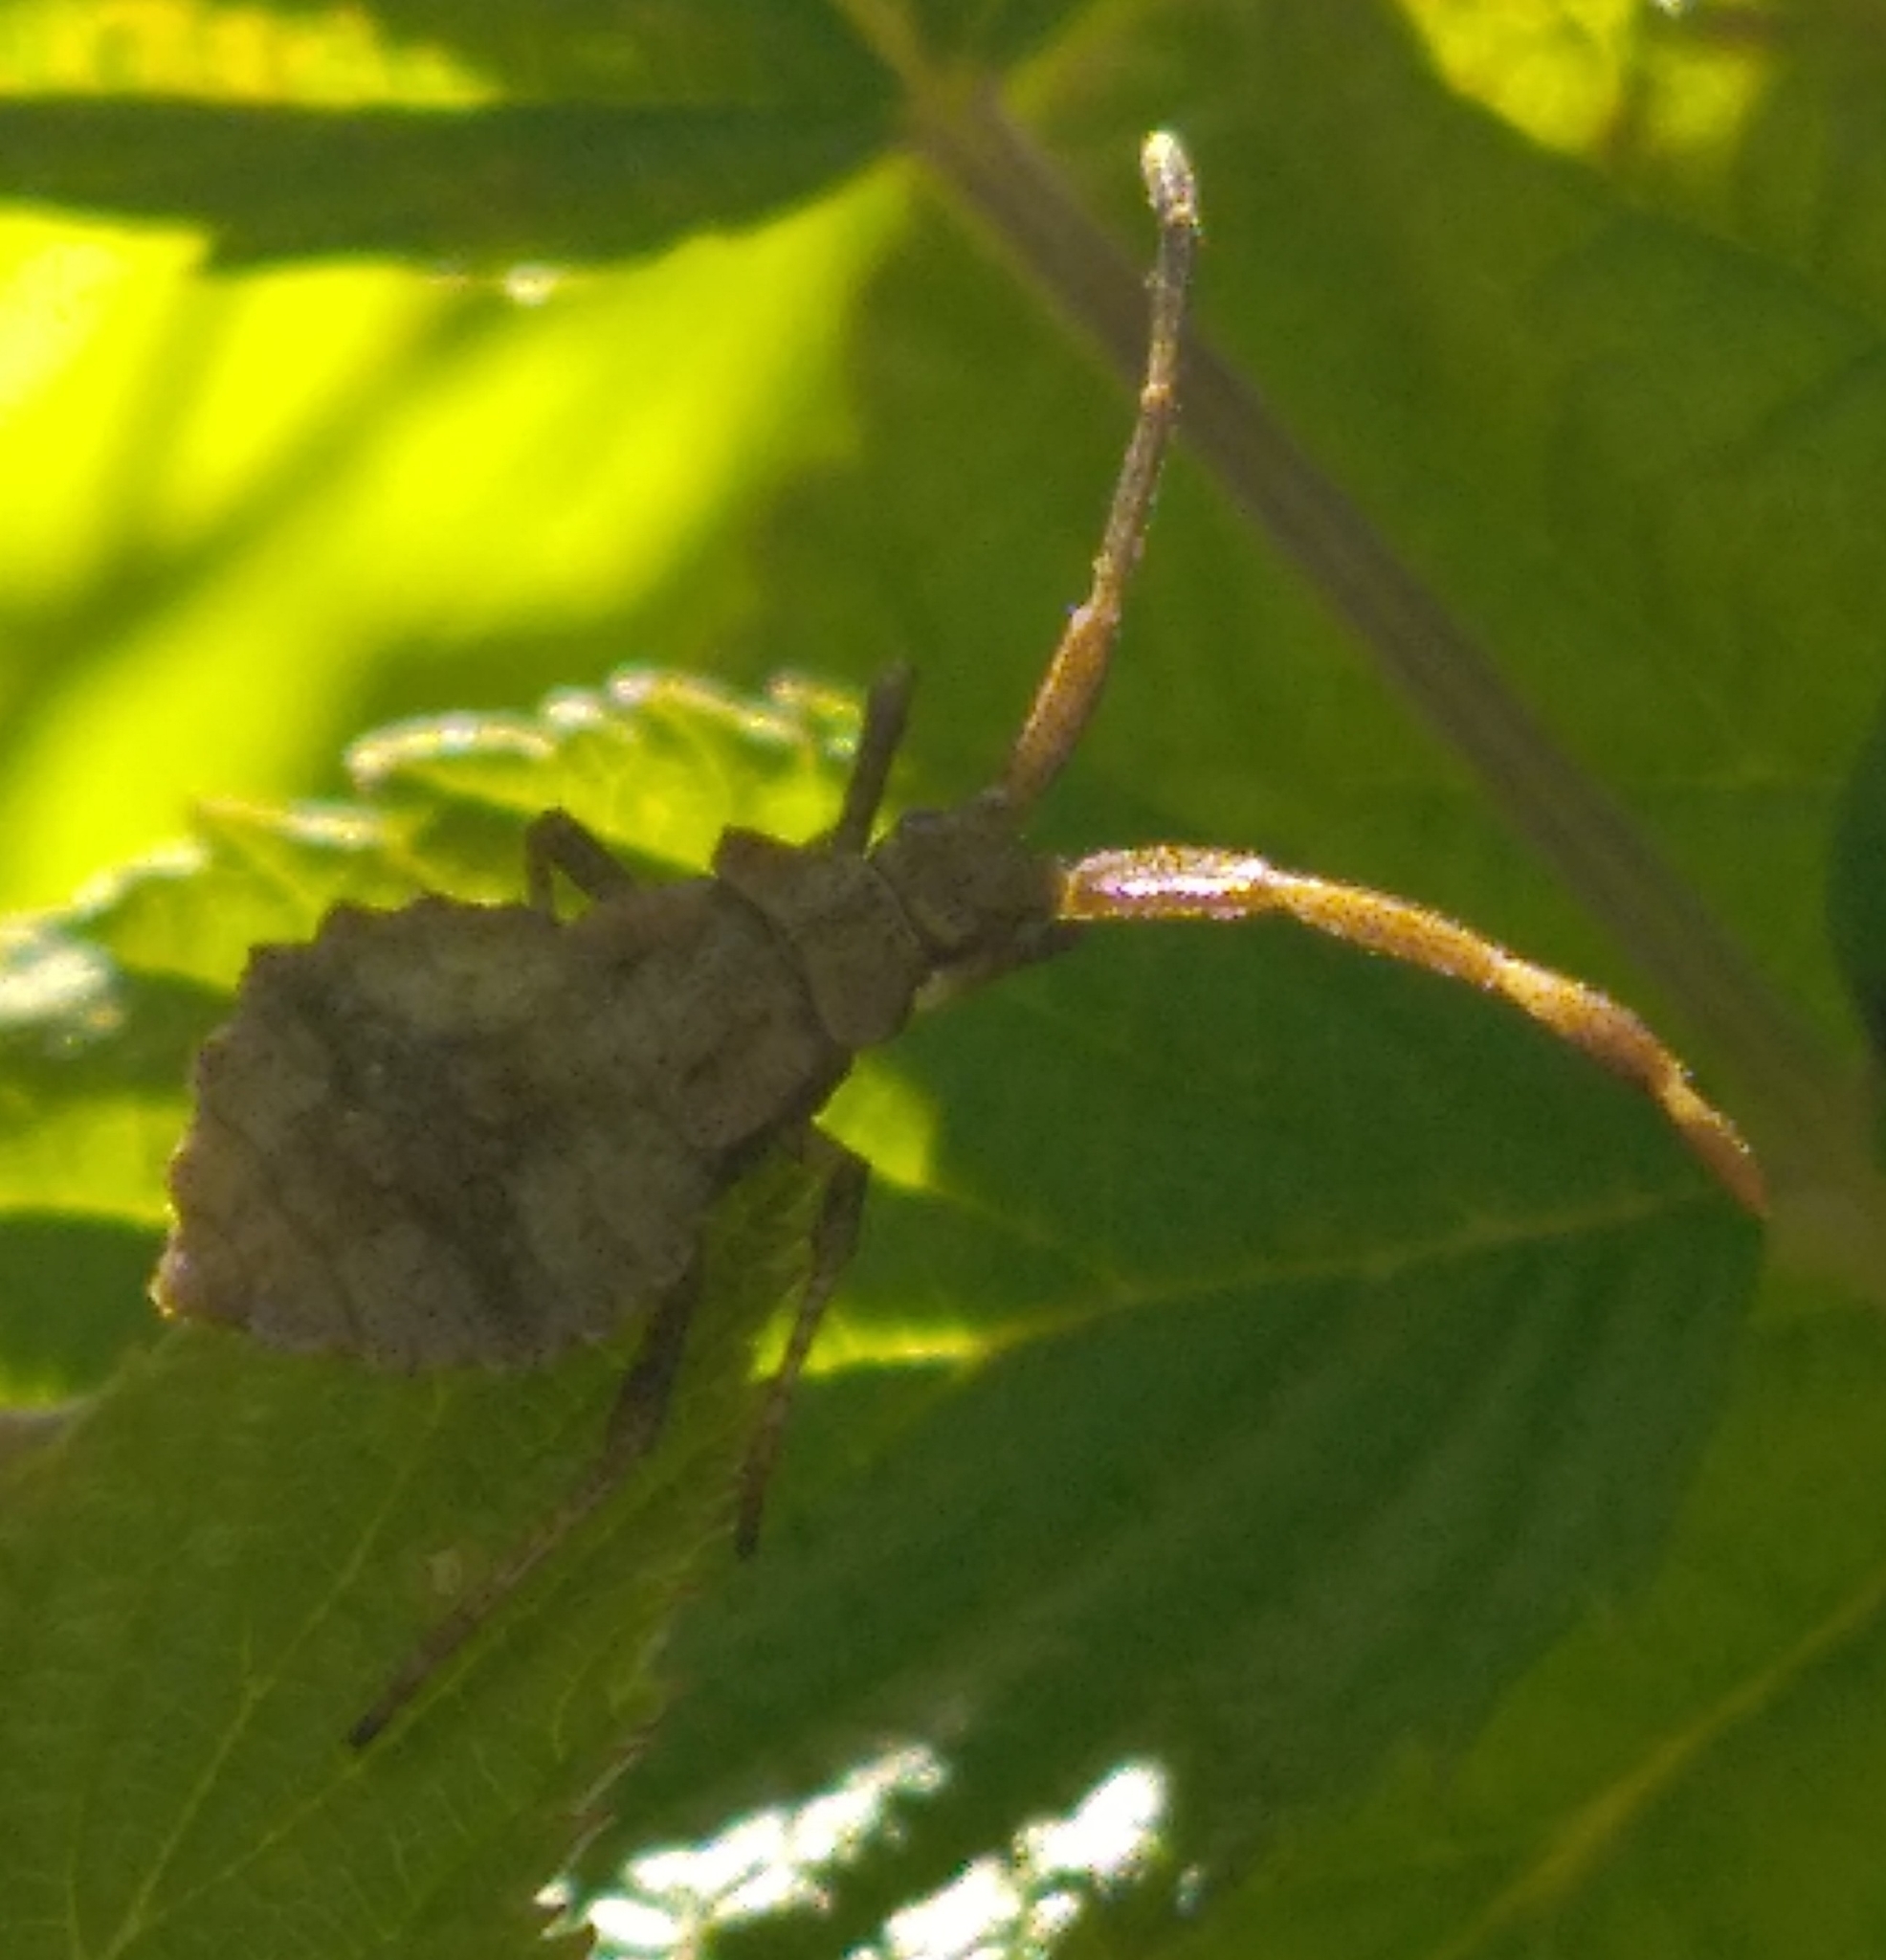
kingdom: Animalia
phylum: Arthropoda
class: Insecta
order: Hemiptera
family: Coreidae
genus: Coreus
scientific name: Coreus marginatus
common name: Dock bug
